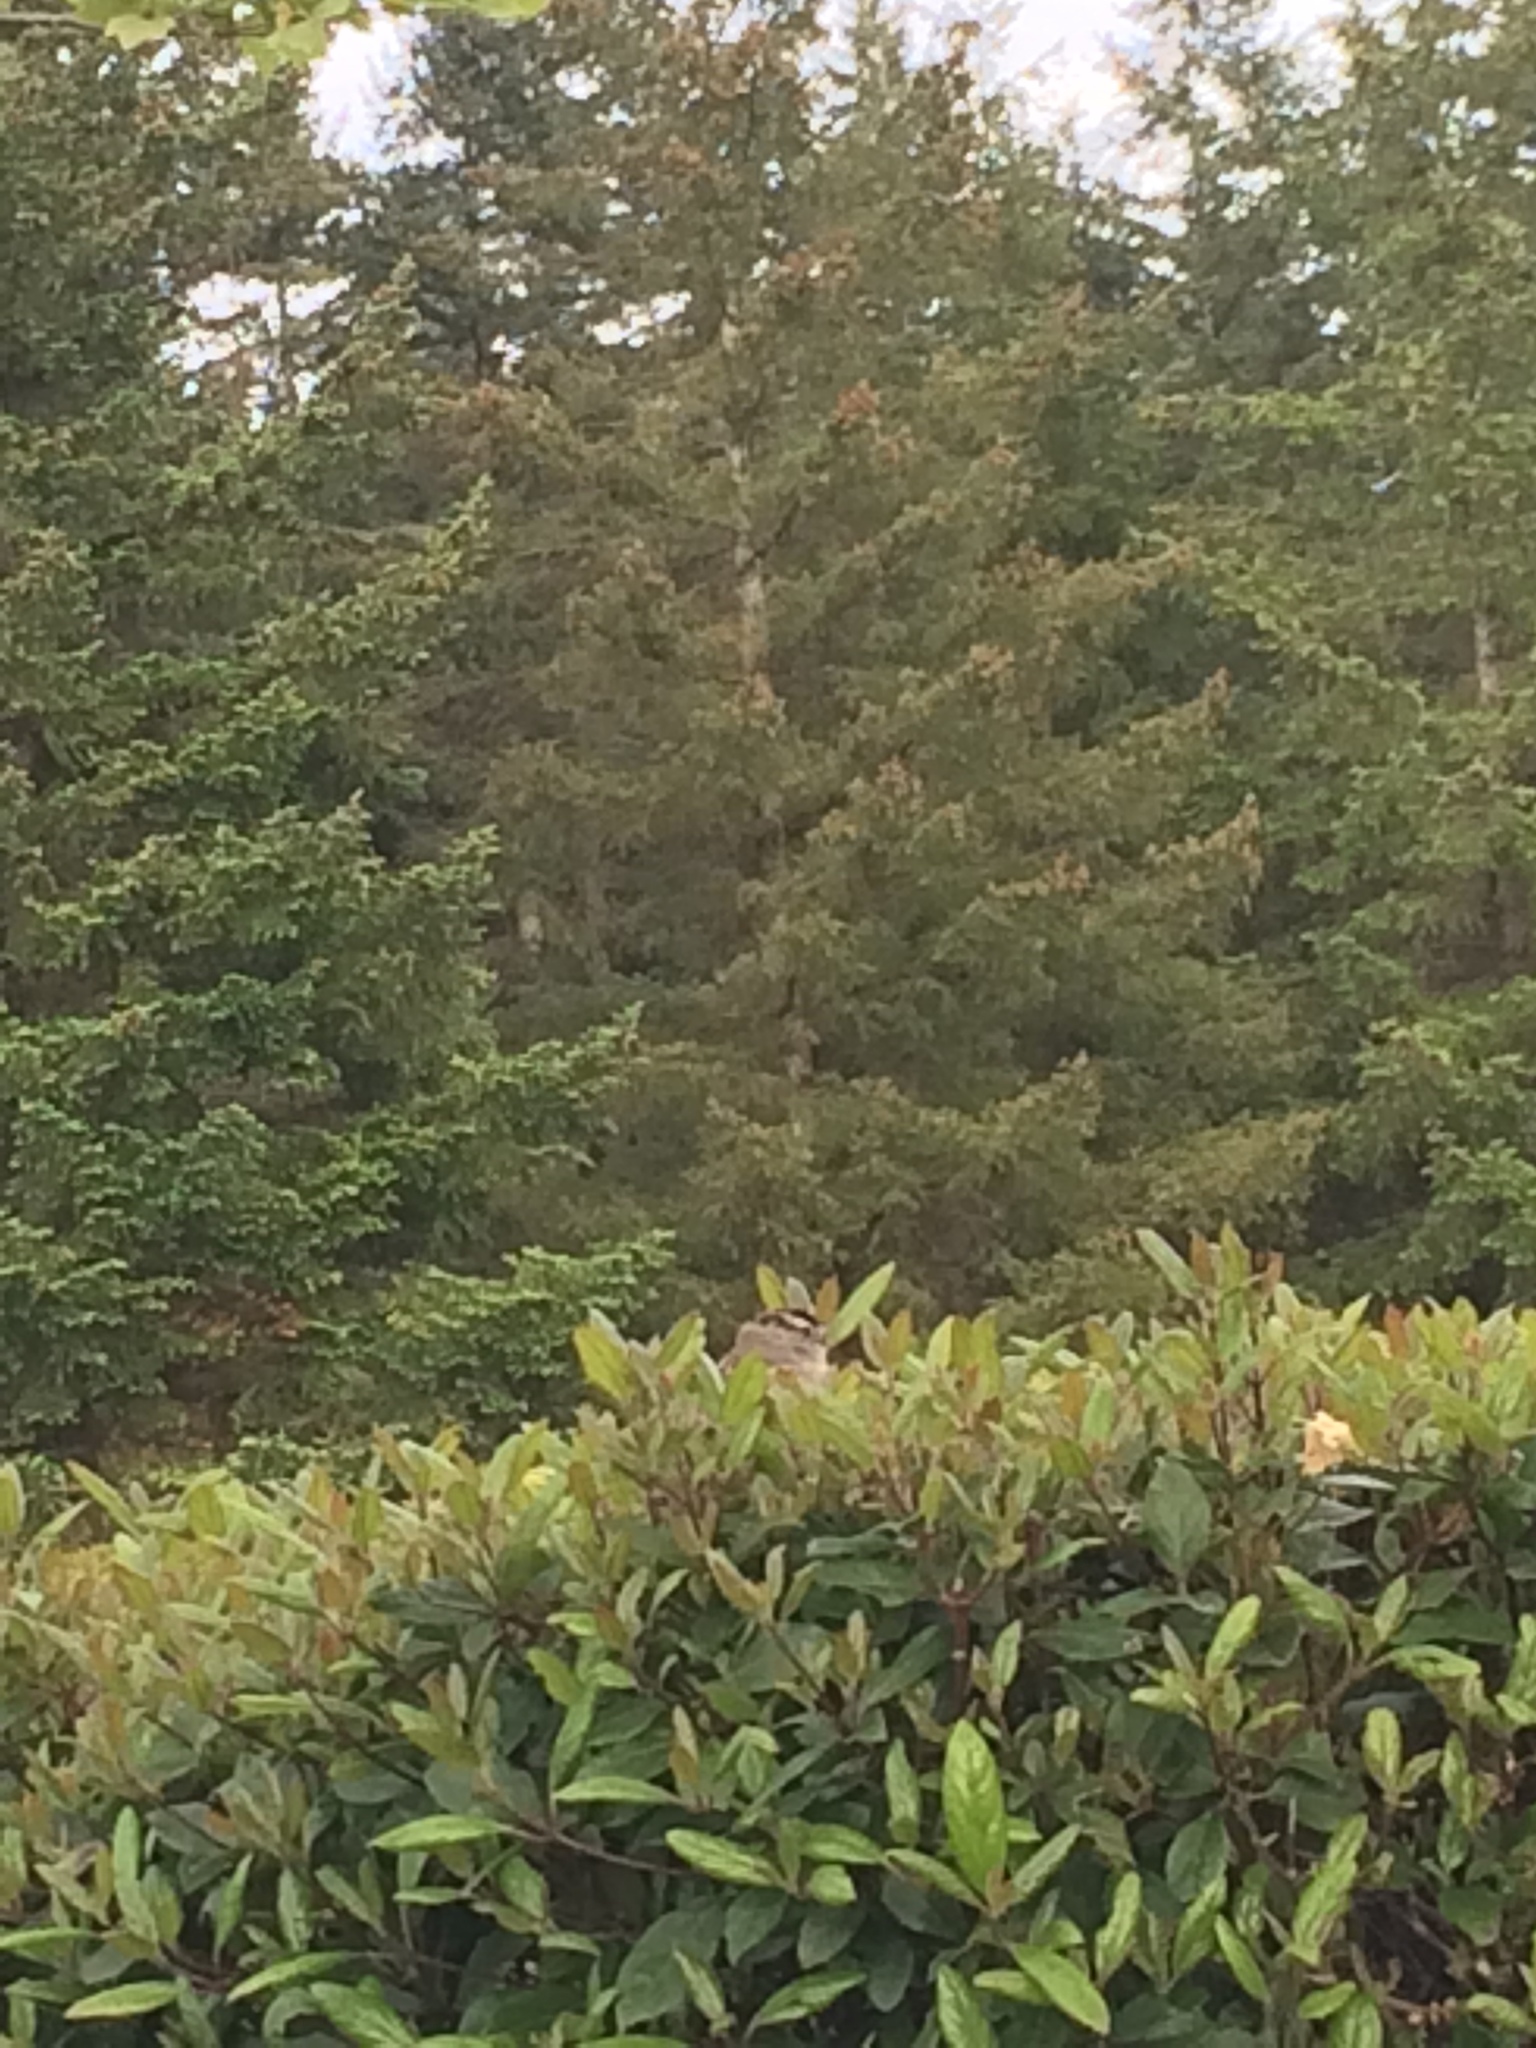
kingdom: Animalia
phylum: Chordata
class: Aves
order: Passeriformes
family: Passerellidae
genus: Zonotrichia
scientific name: Zonotrichia leucophrys
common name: White-crowned sparrow
